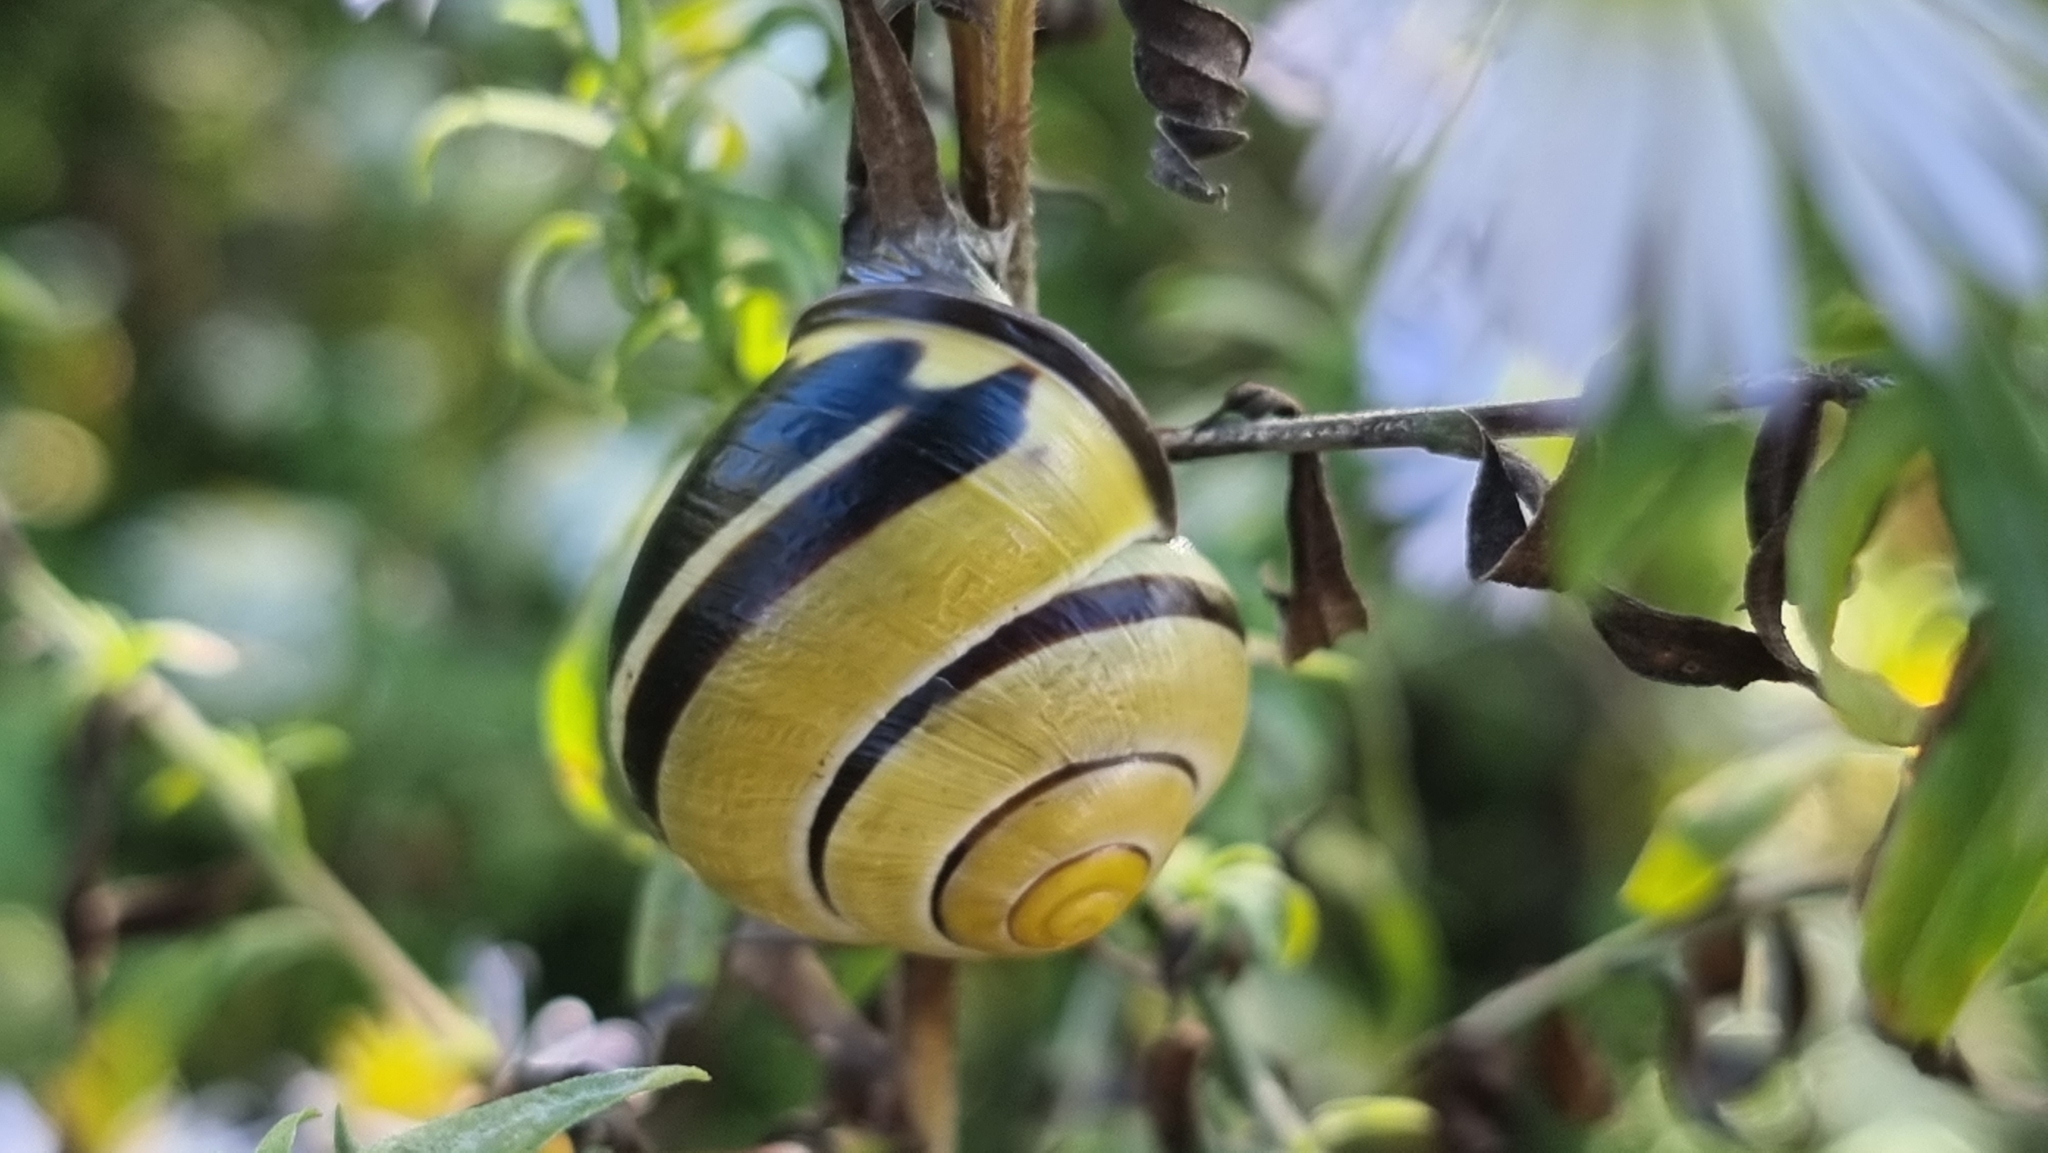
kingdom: Animalia
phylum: Mollusca
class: Gastropoda
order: Stylommatophora
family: Helicidae
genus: Cepaea
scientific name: Cepaea nemoralis
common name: Grovesnail
